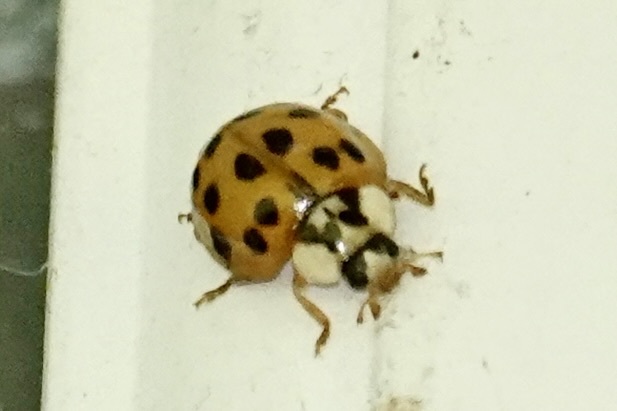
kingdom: Animalia
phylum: Arthropoda
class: Insecta
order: Coleoptera
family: Coccinellidae
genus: Harmonia
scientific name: Harmonia axyridis
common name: Harlequin ladybird
